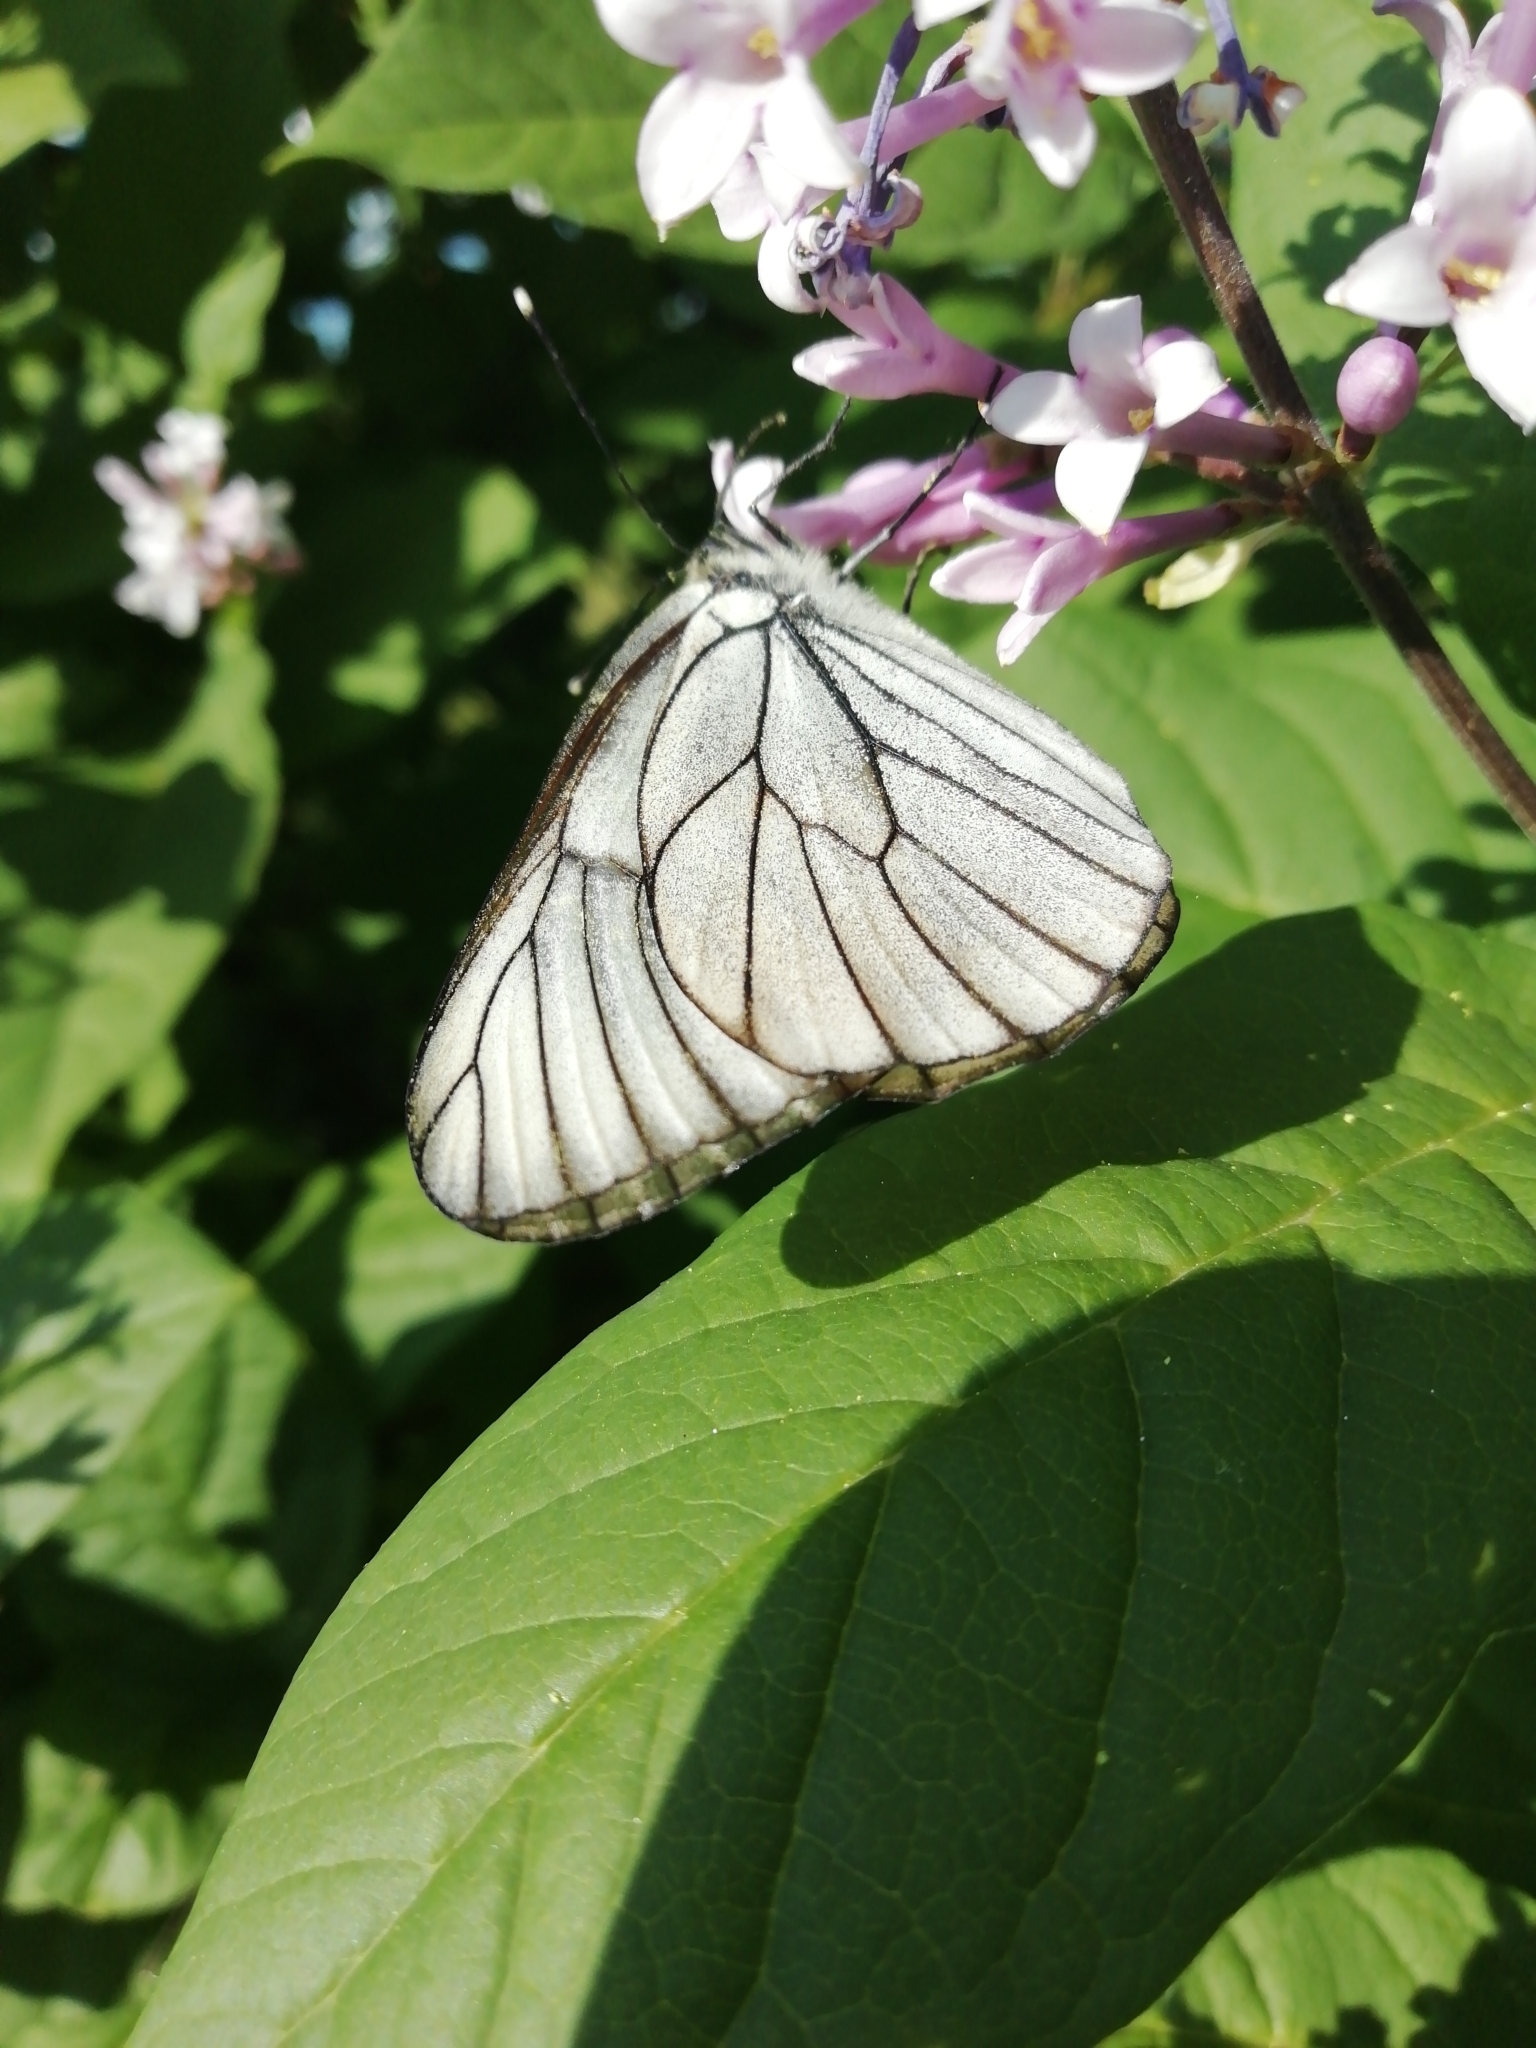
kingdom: Animalia
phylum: Arthropoda
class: Insecta
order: Lepidoptera
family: Pieridae
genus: Aporia
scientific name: Aporia crataegi
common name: Black-veined white
